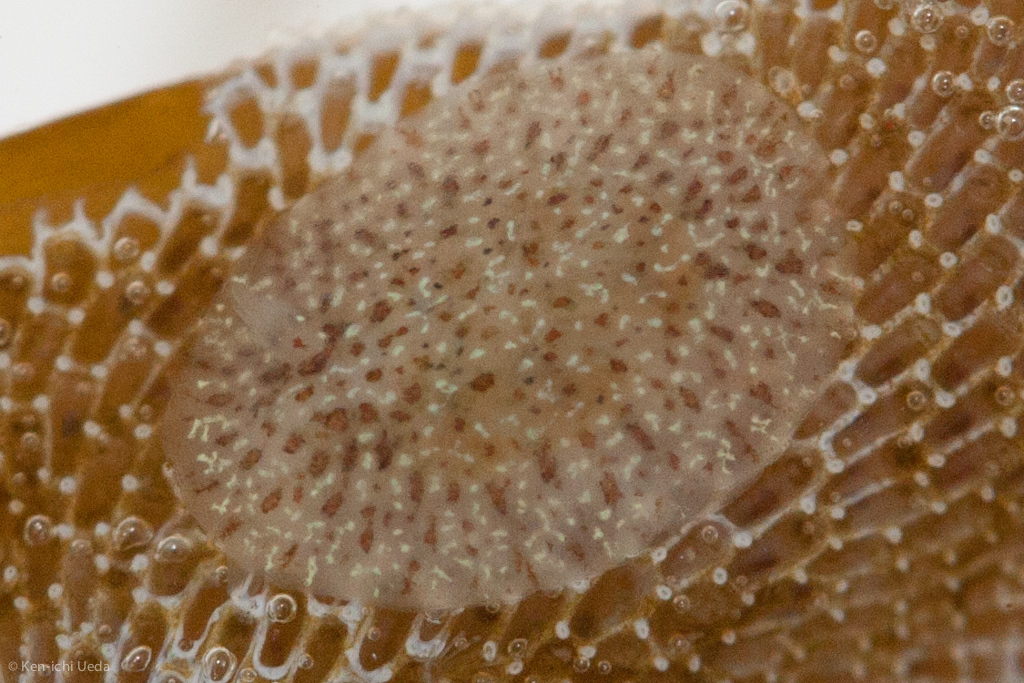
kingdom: Animalia
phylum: Mollusca
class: Gastropoda
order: Nudibranchia
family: Corambidae
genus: Corambe
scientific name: Corambe pacifica
